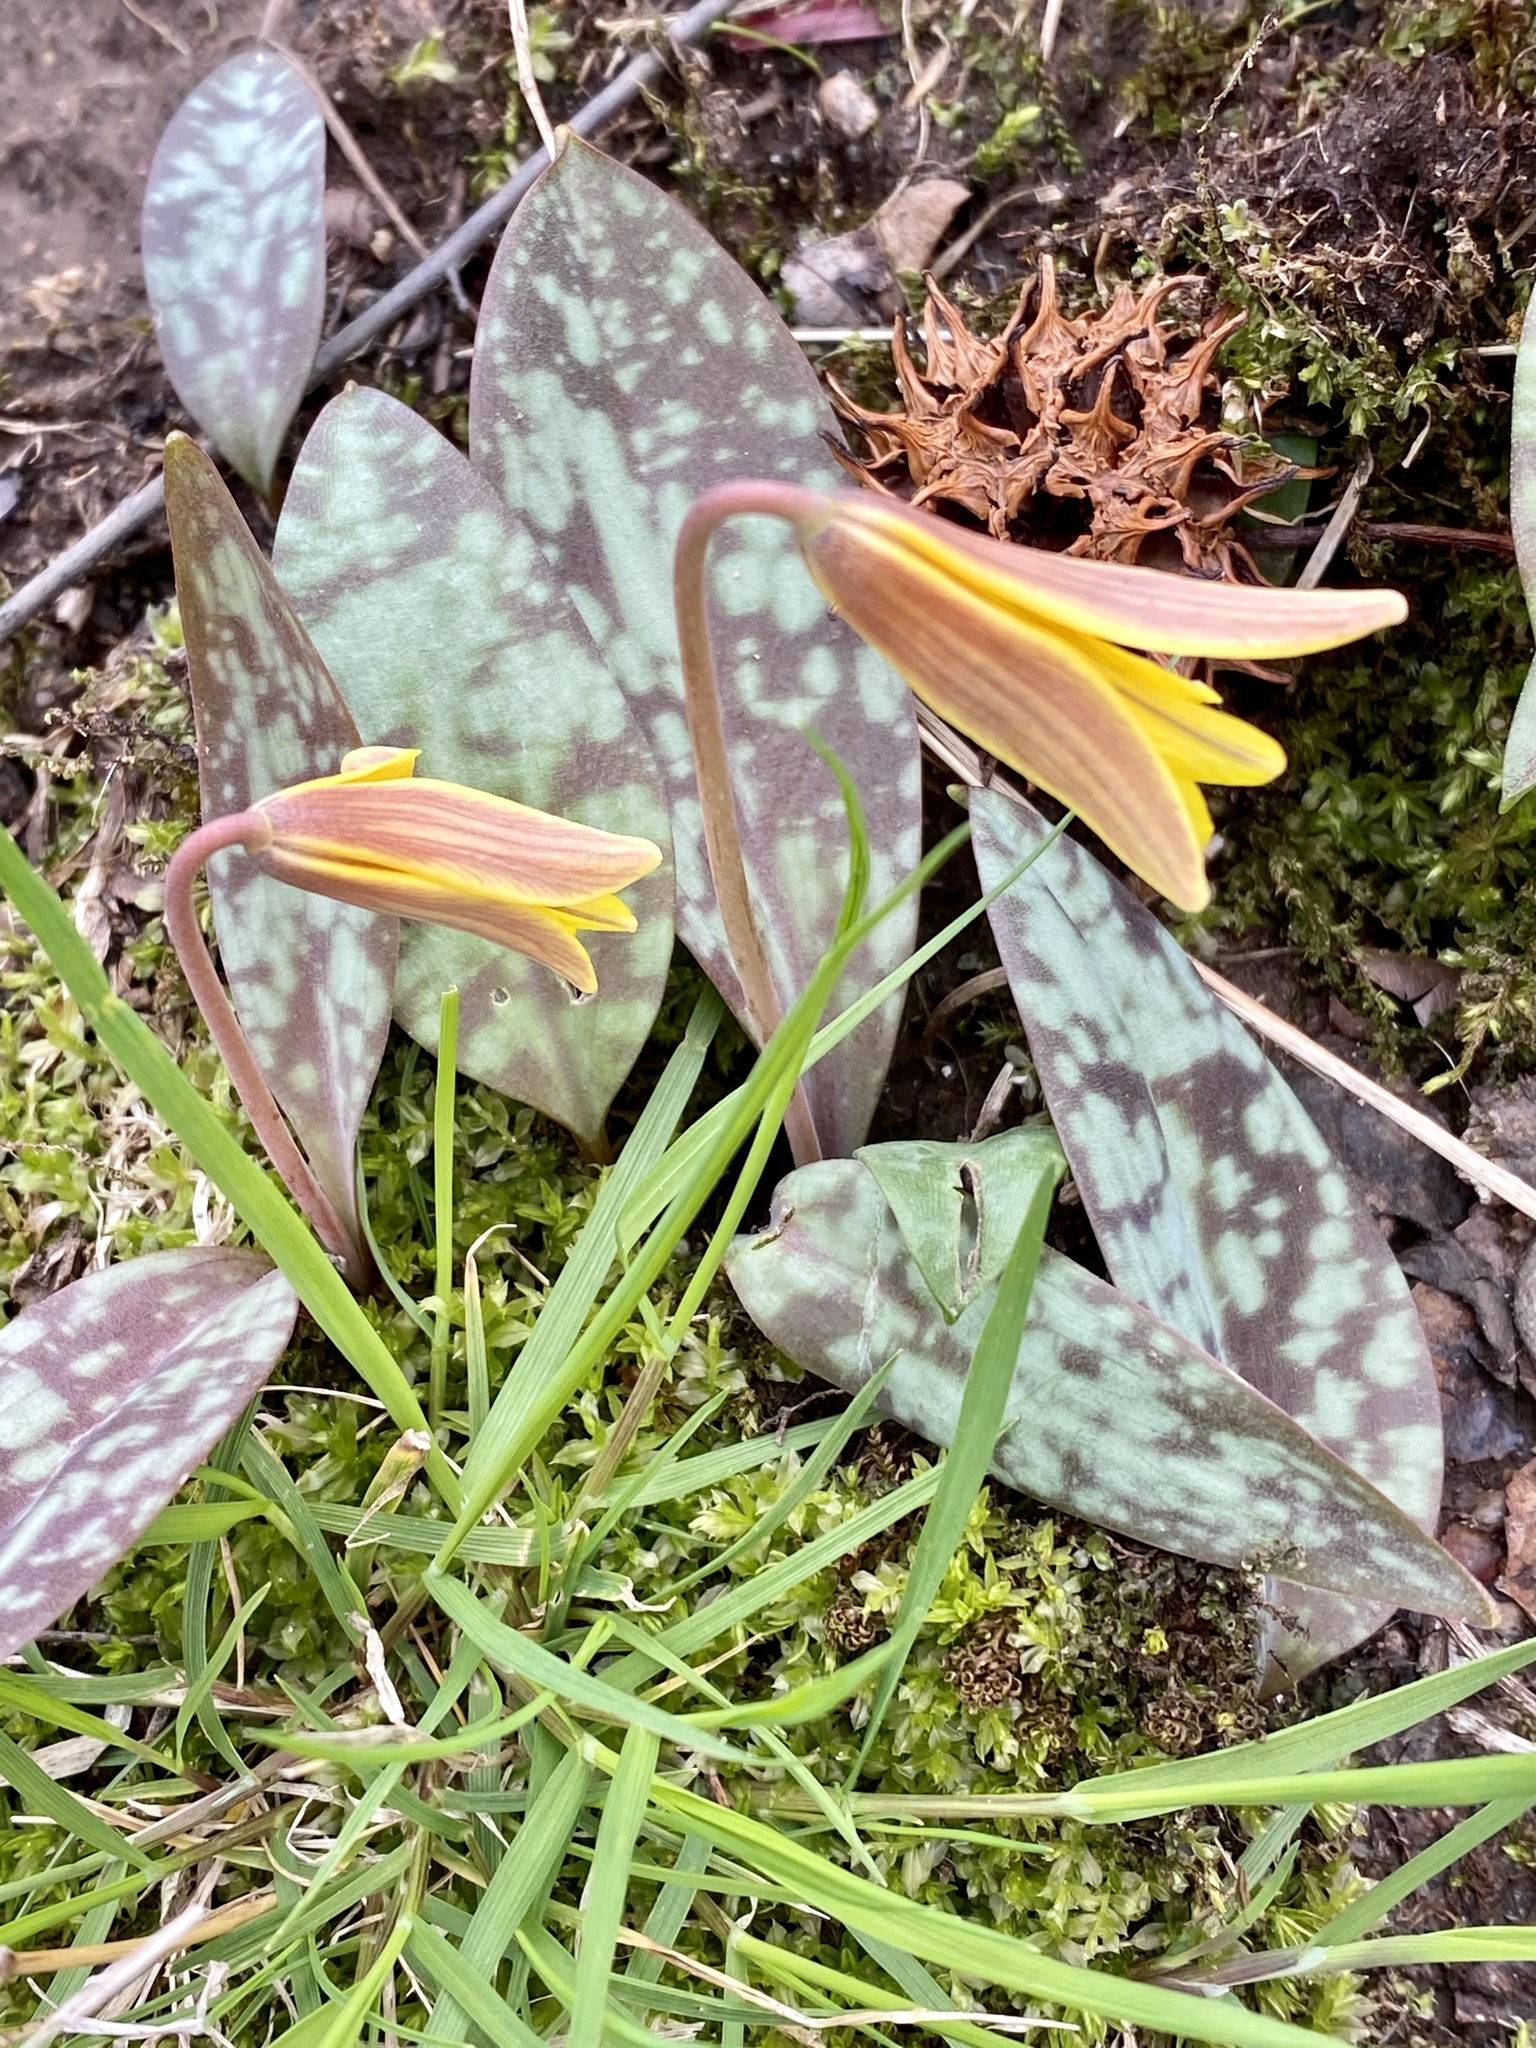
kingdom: Plantae
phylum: Tracheophyta
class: Liliopsida
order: Liliales
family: Liliaceae
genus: Erythronium
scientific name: Erythronium americanum
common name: Yellow adder's-tongue
